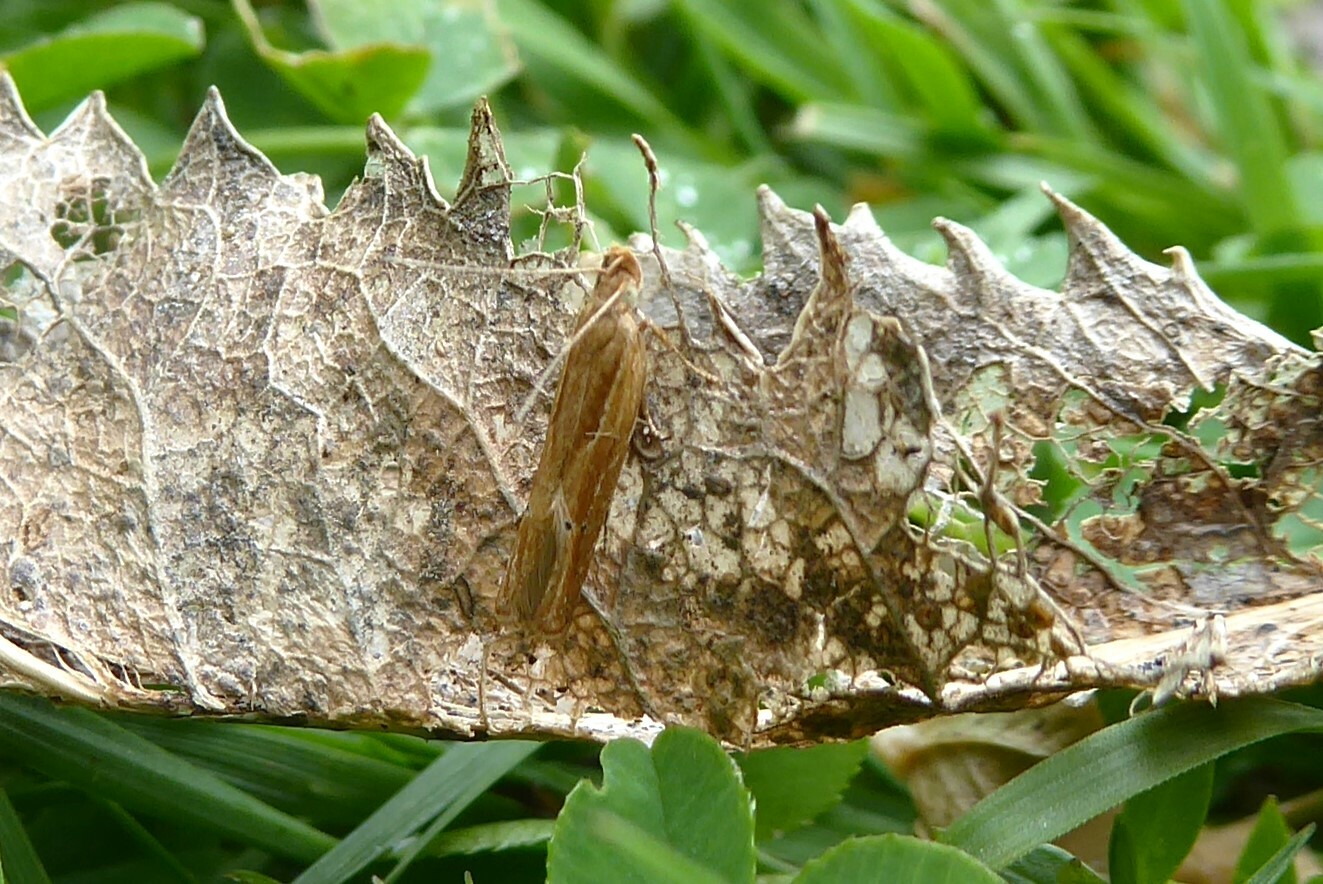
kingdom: Animalia
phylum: Arthropoda
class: Insecta
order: Lepidoptera
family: Depressariidae
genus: Eutorna
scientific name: Eutorna symmorpha
